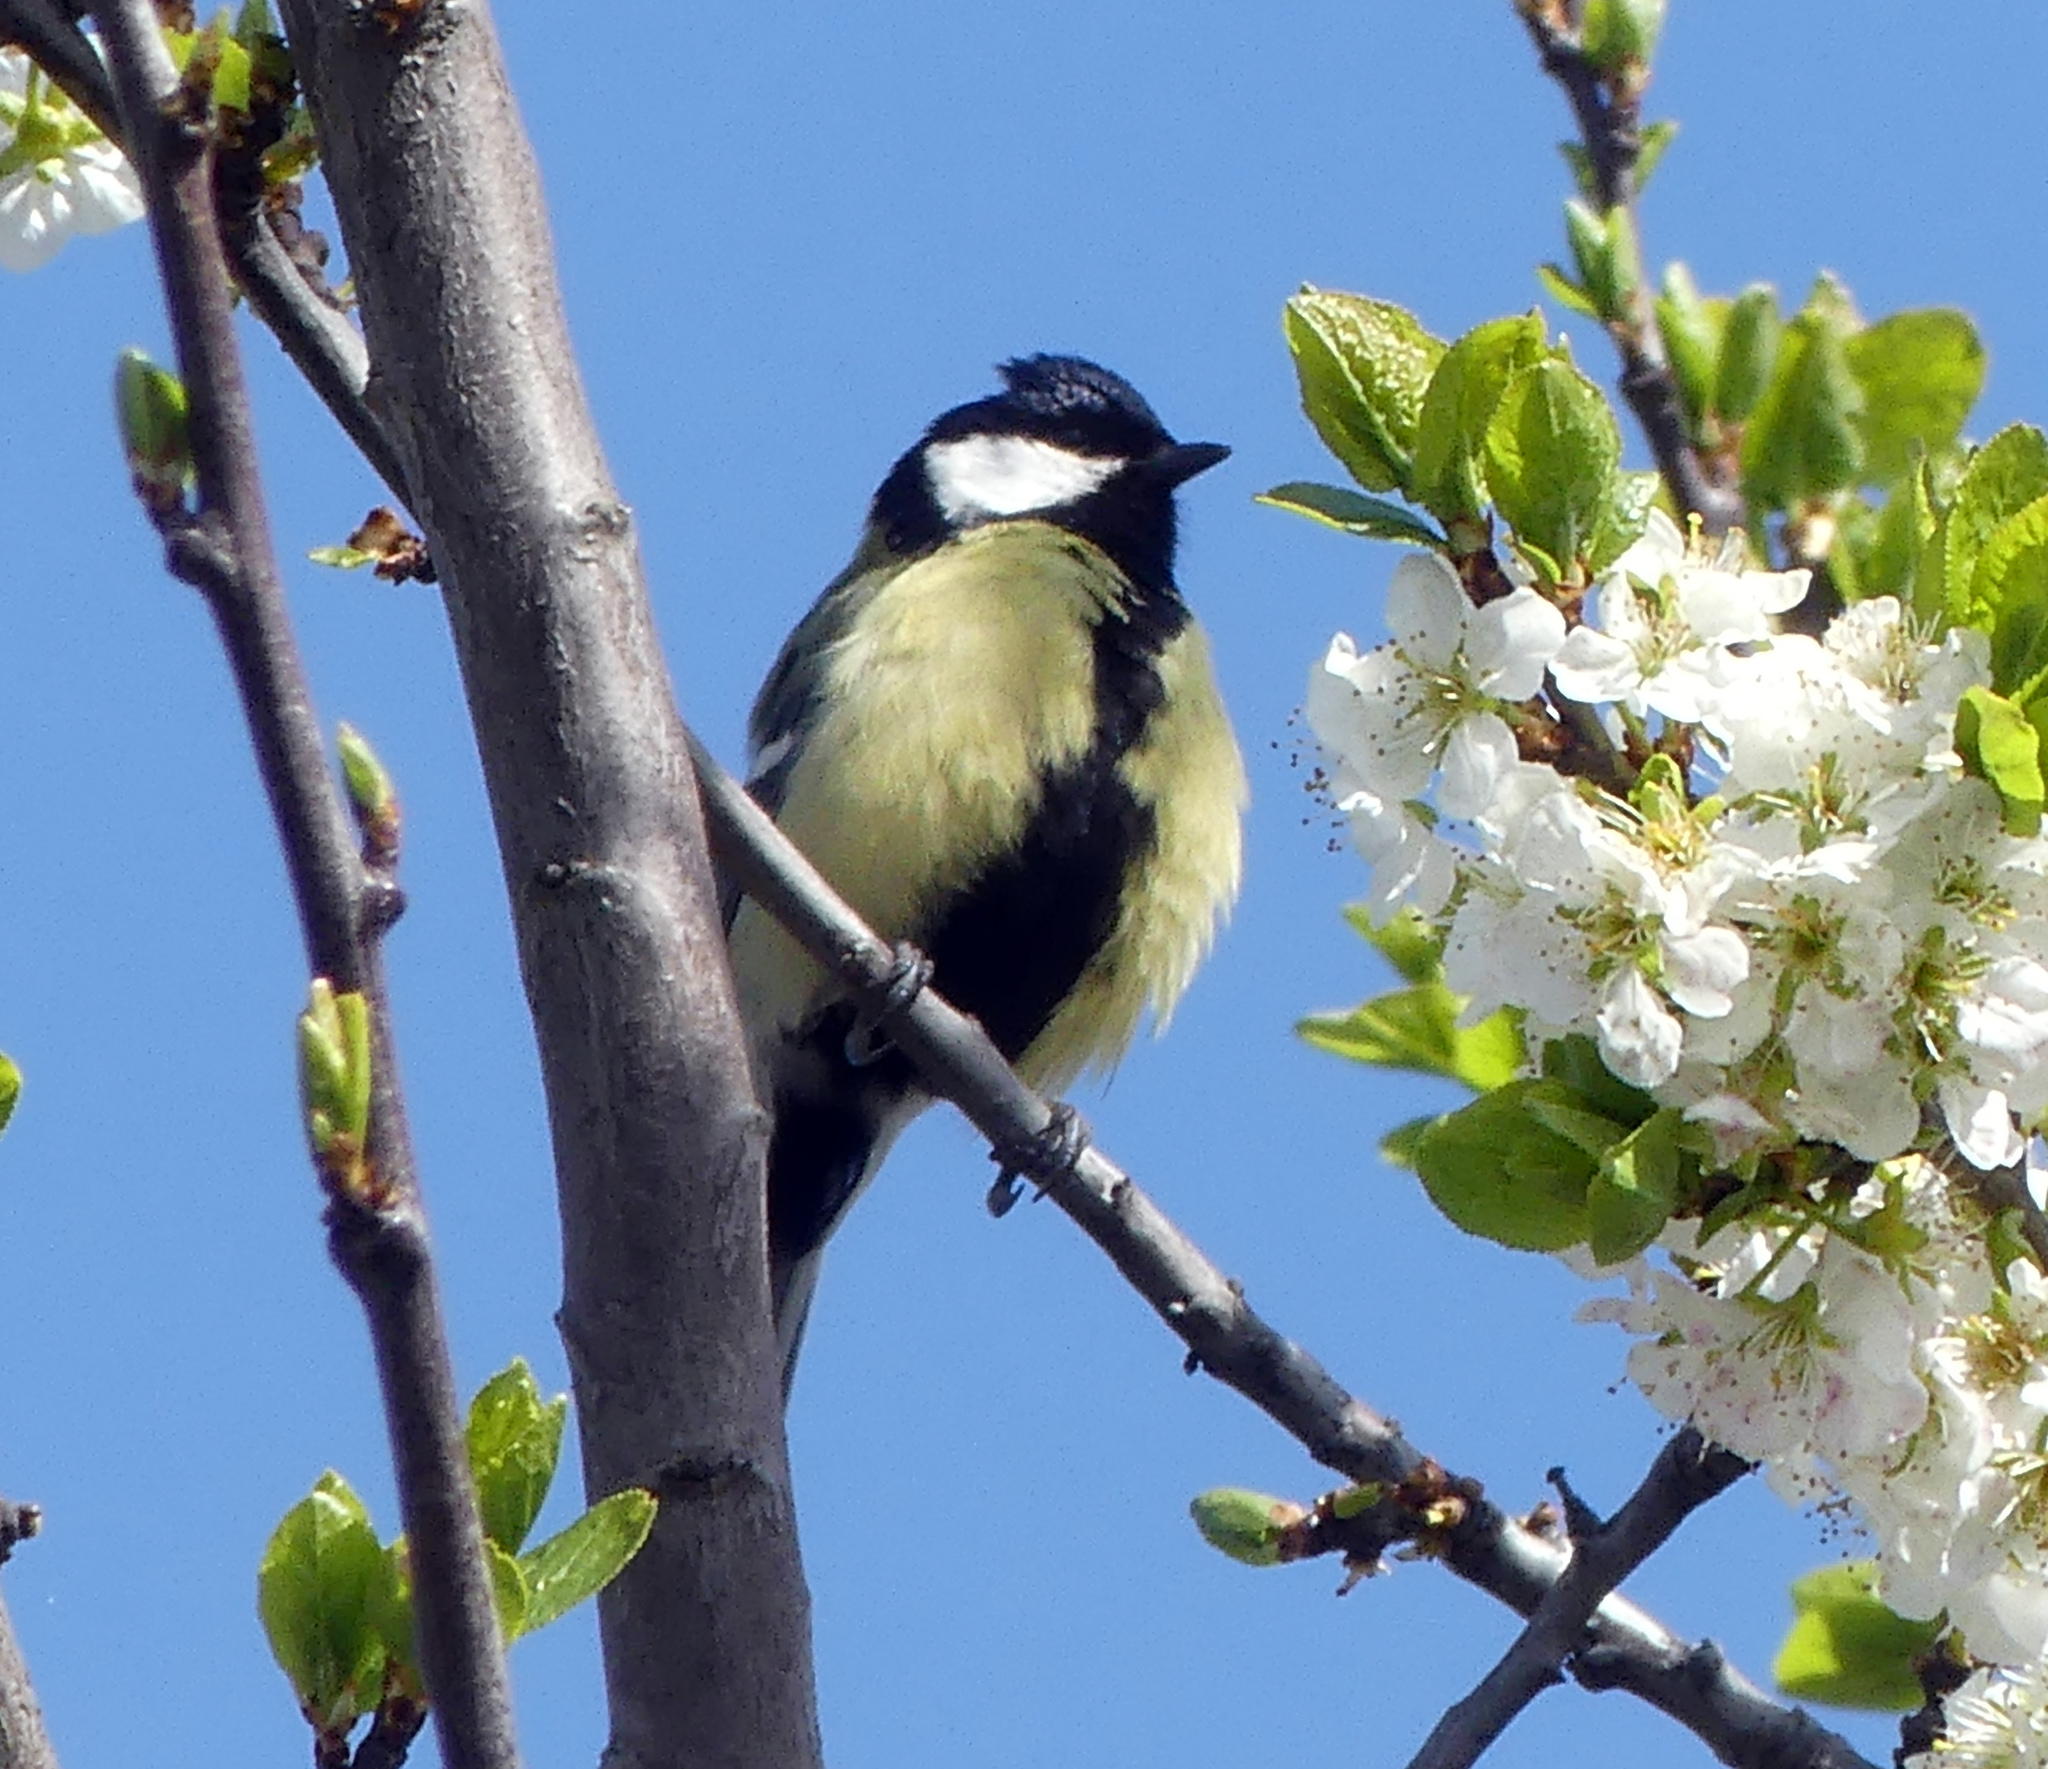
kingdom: Animalia
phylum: Chordata
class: Aves
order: Passeriformes
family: Paridae
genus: Parus
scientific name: Parus major
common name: Great tit
